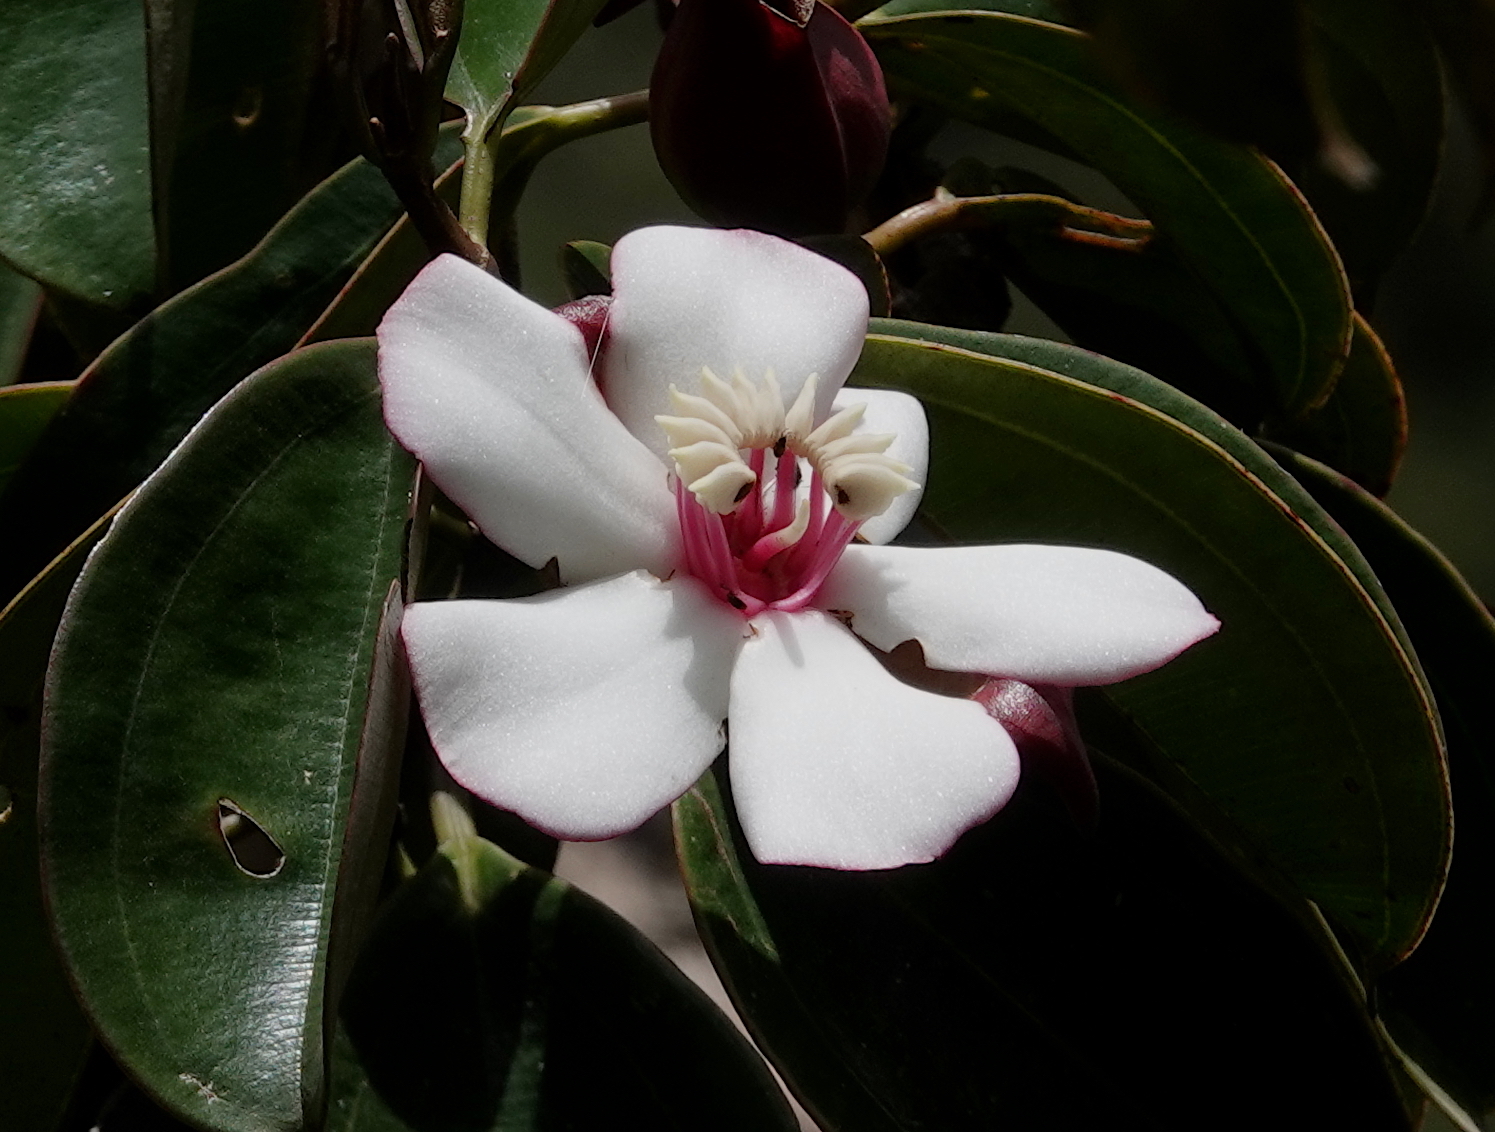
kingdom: Plantae
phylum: Tracheophyta
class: Magnoliopsida
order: Myrtales
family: Melastomataceae
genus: Blakea
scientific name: Blakea quadrangularis
